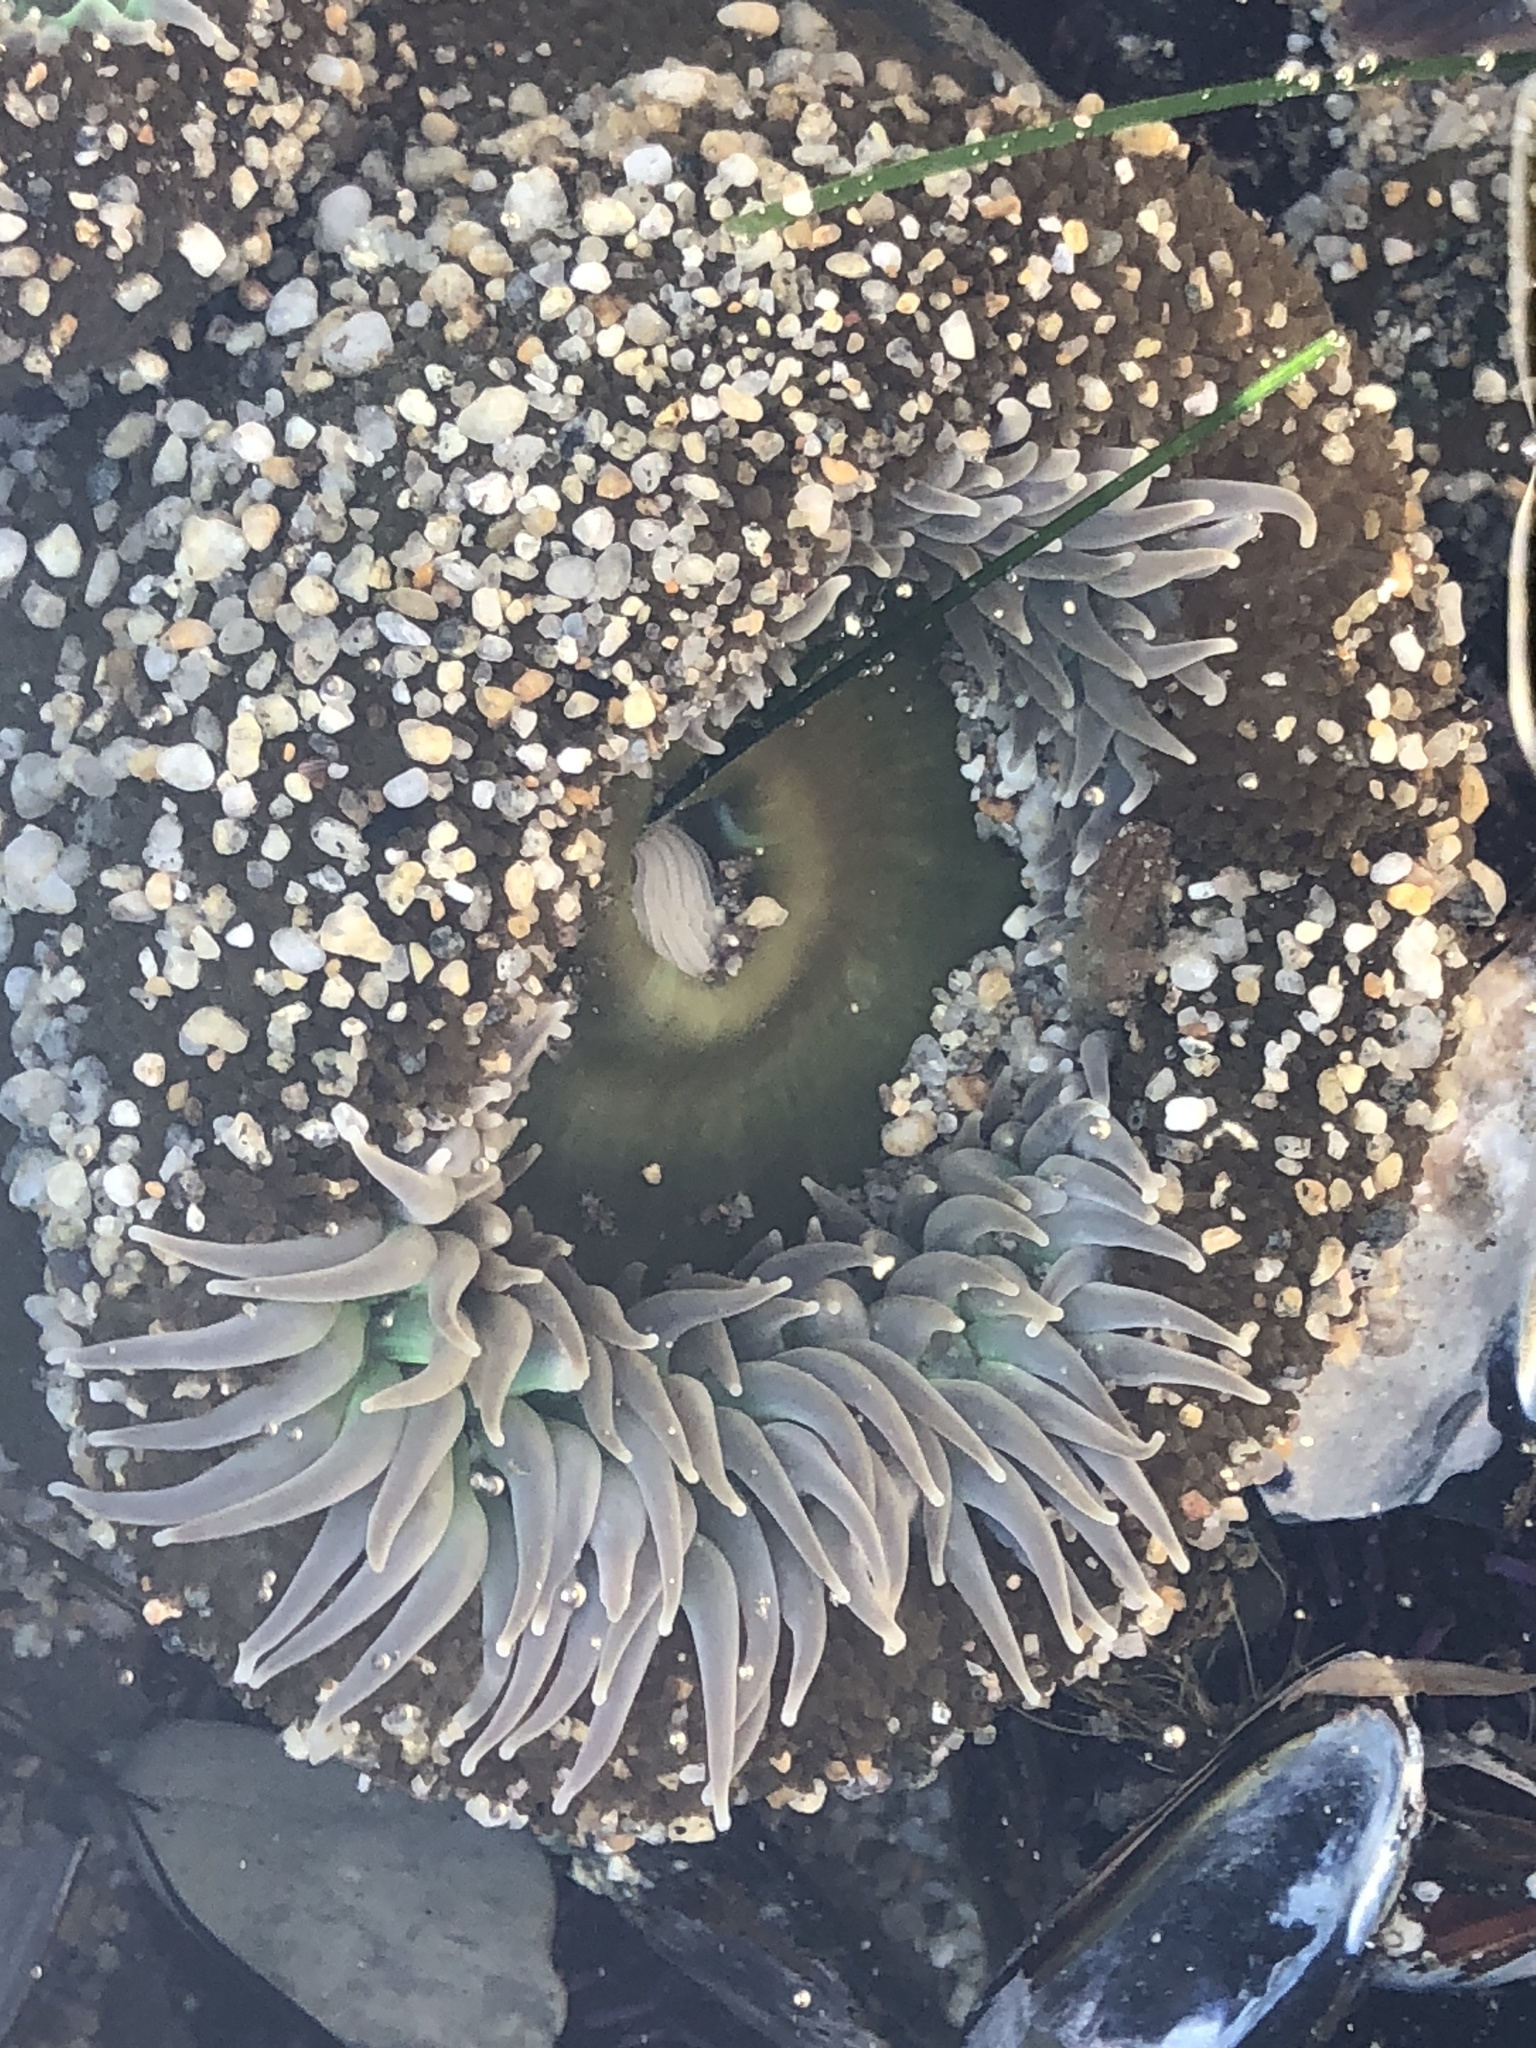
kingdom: Animalia
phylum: Cnidaria
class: Anthozoa
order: Actiniaria
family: Actiniidae
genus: Anthopleura
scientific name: Anthopleura xanthogrammica
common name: Giant green anemone
